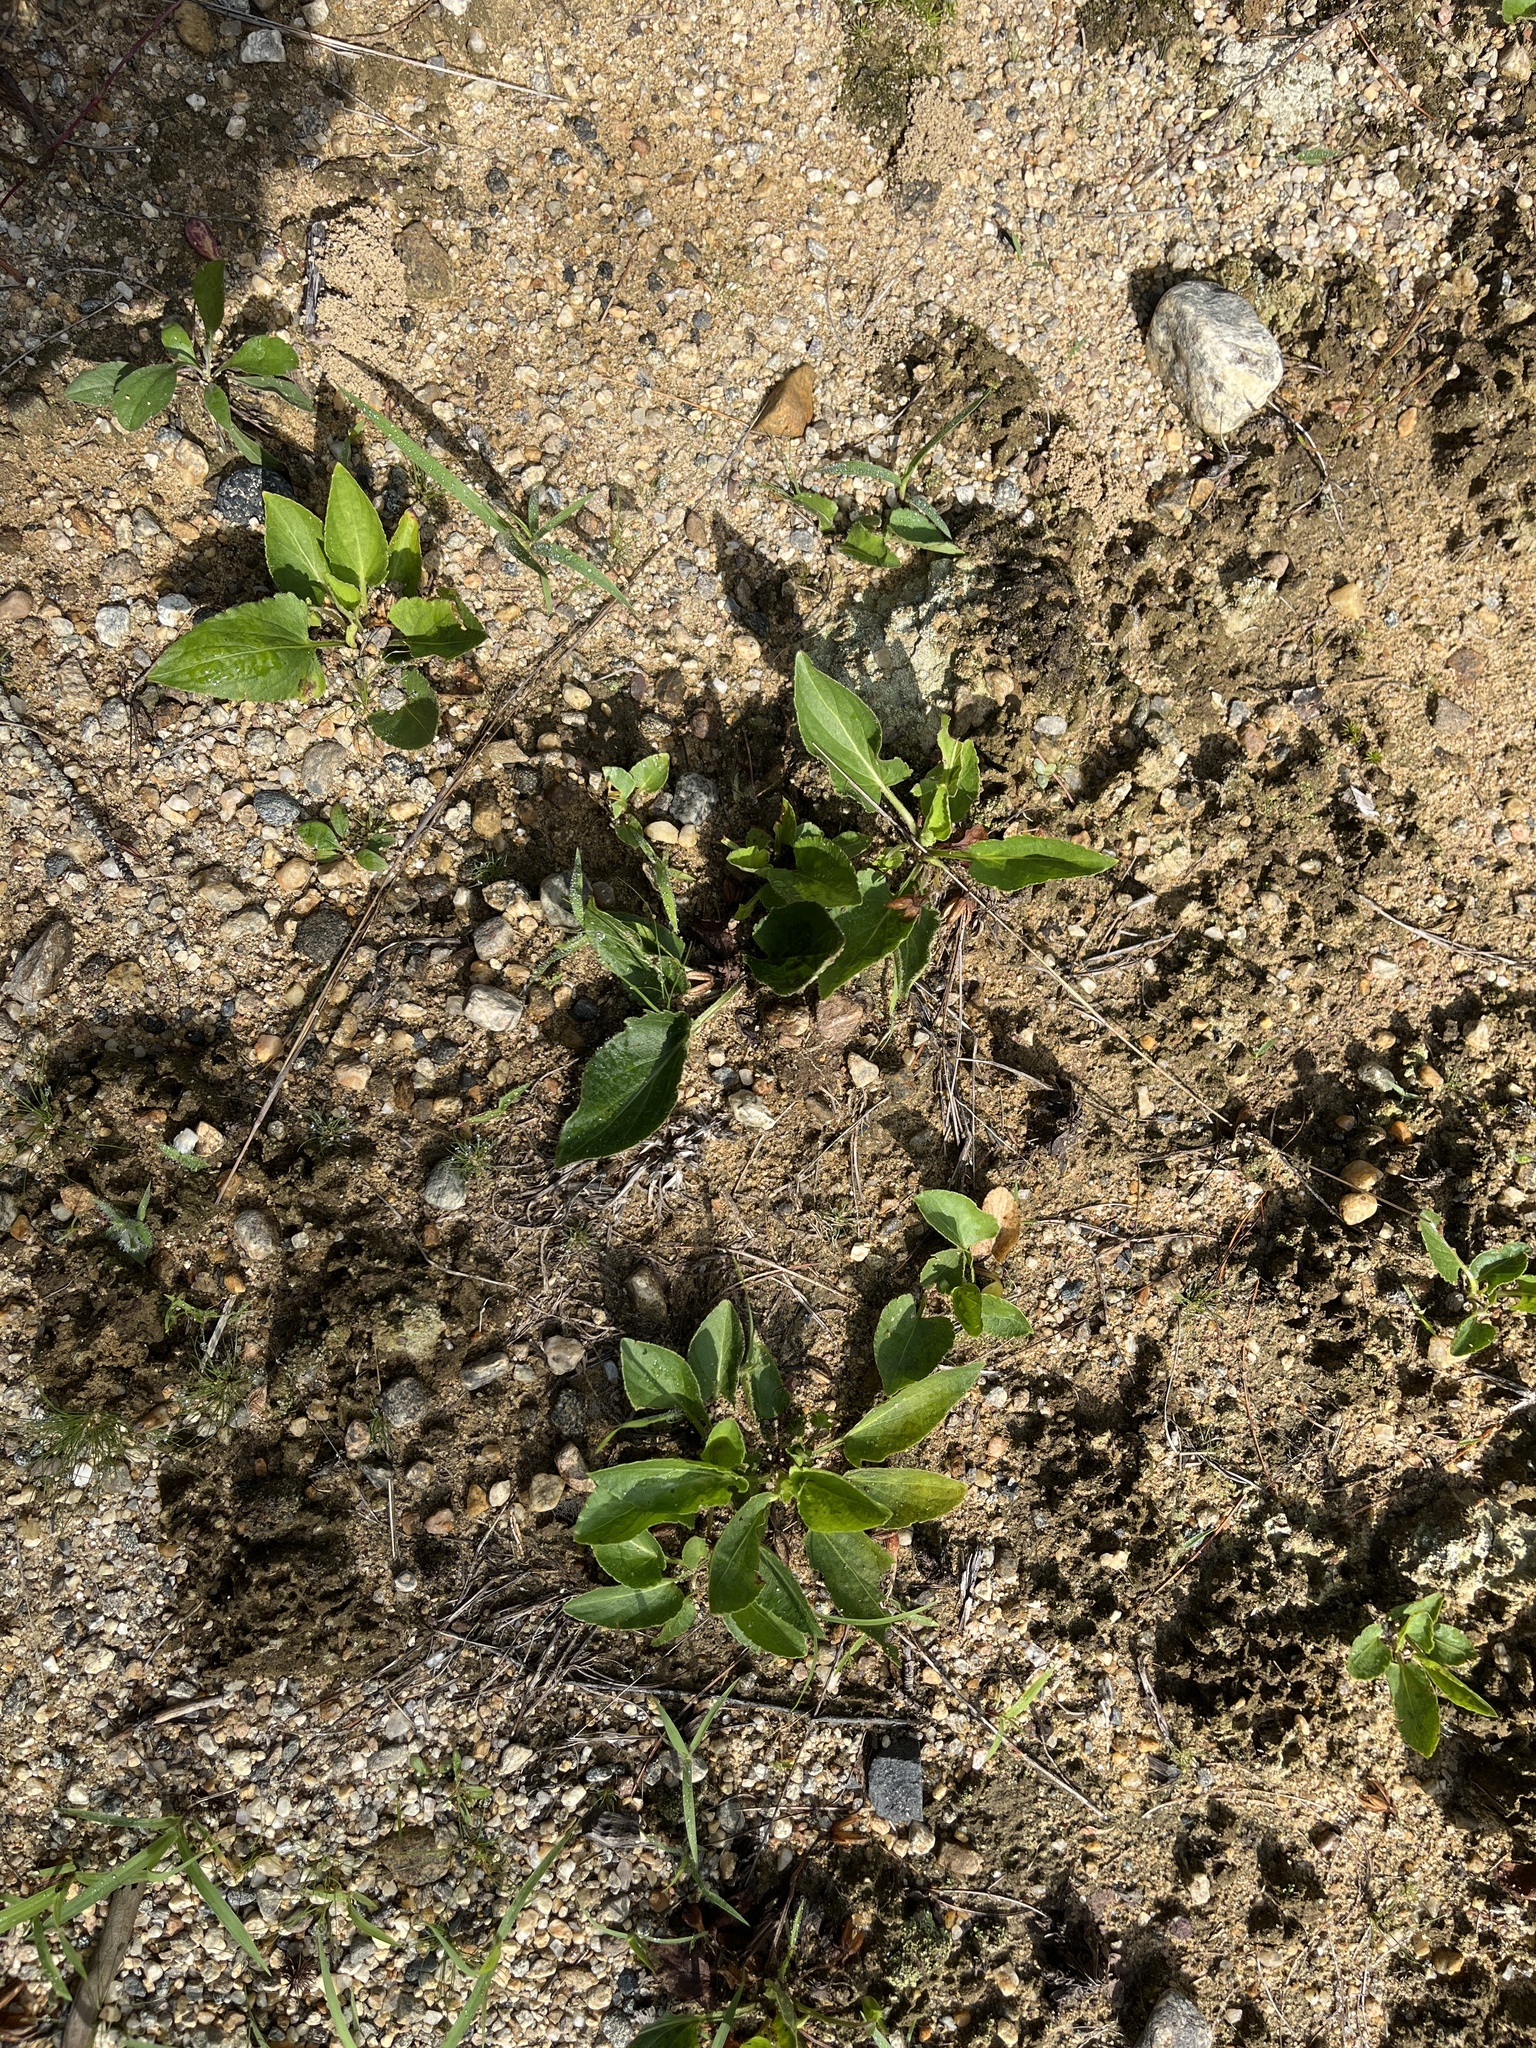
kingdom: Plantae
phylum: Tracheophyta
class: Magnoliopsida
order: Malpighiales
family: Violaceae
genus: Viola
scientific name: Viola fimbriatula
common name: Sand violet
